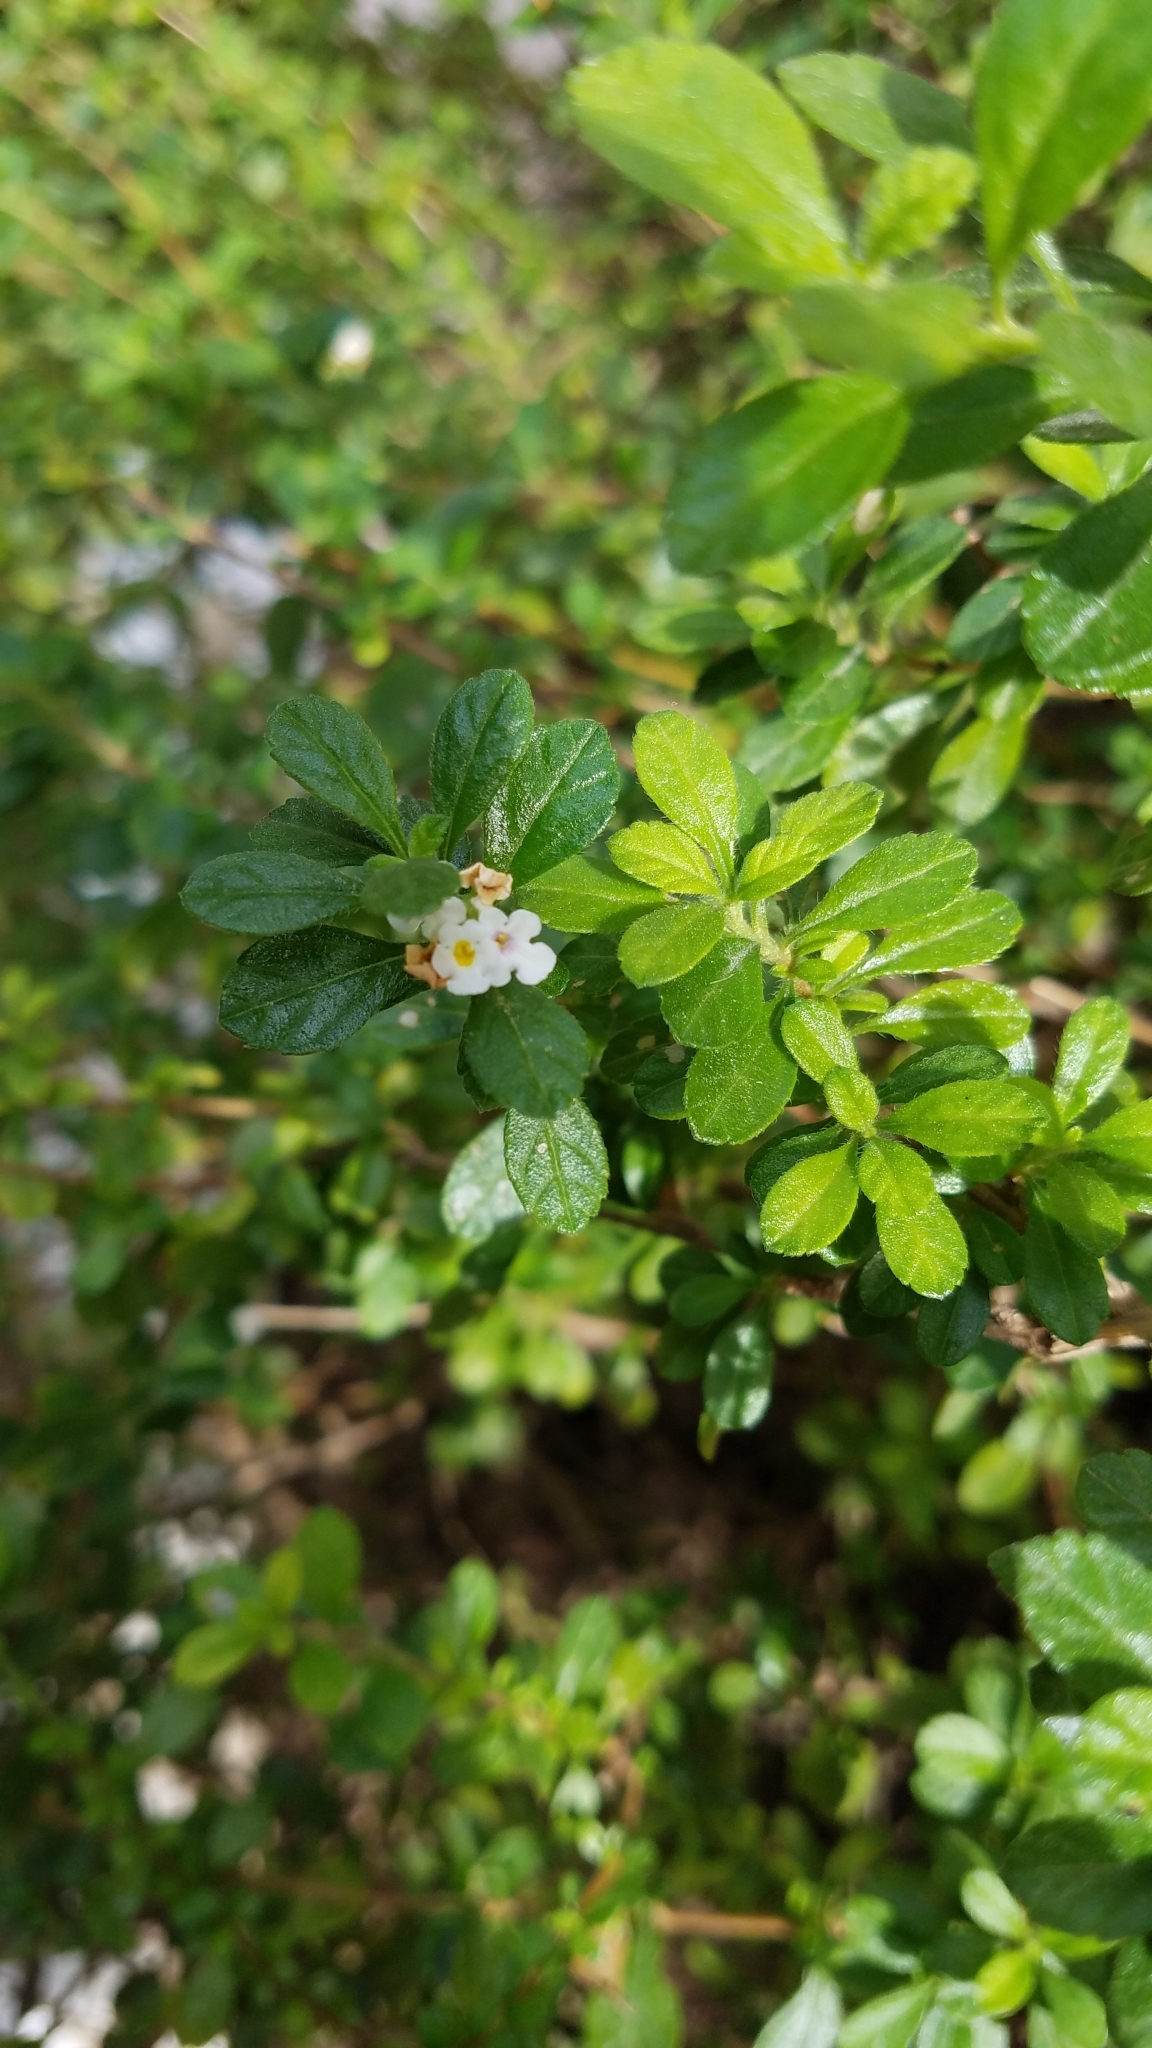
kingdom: Plantae
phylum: Tracheophyta
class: Magnoliopsida
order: Lamiales
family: Verbenaceae
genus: Lippia
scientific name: Lippia micromera
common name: Puerto rican oregano
